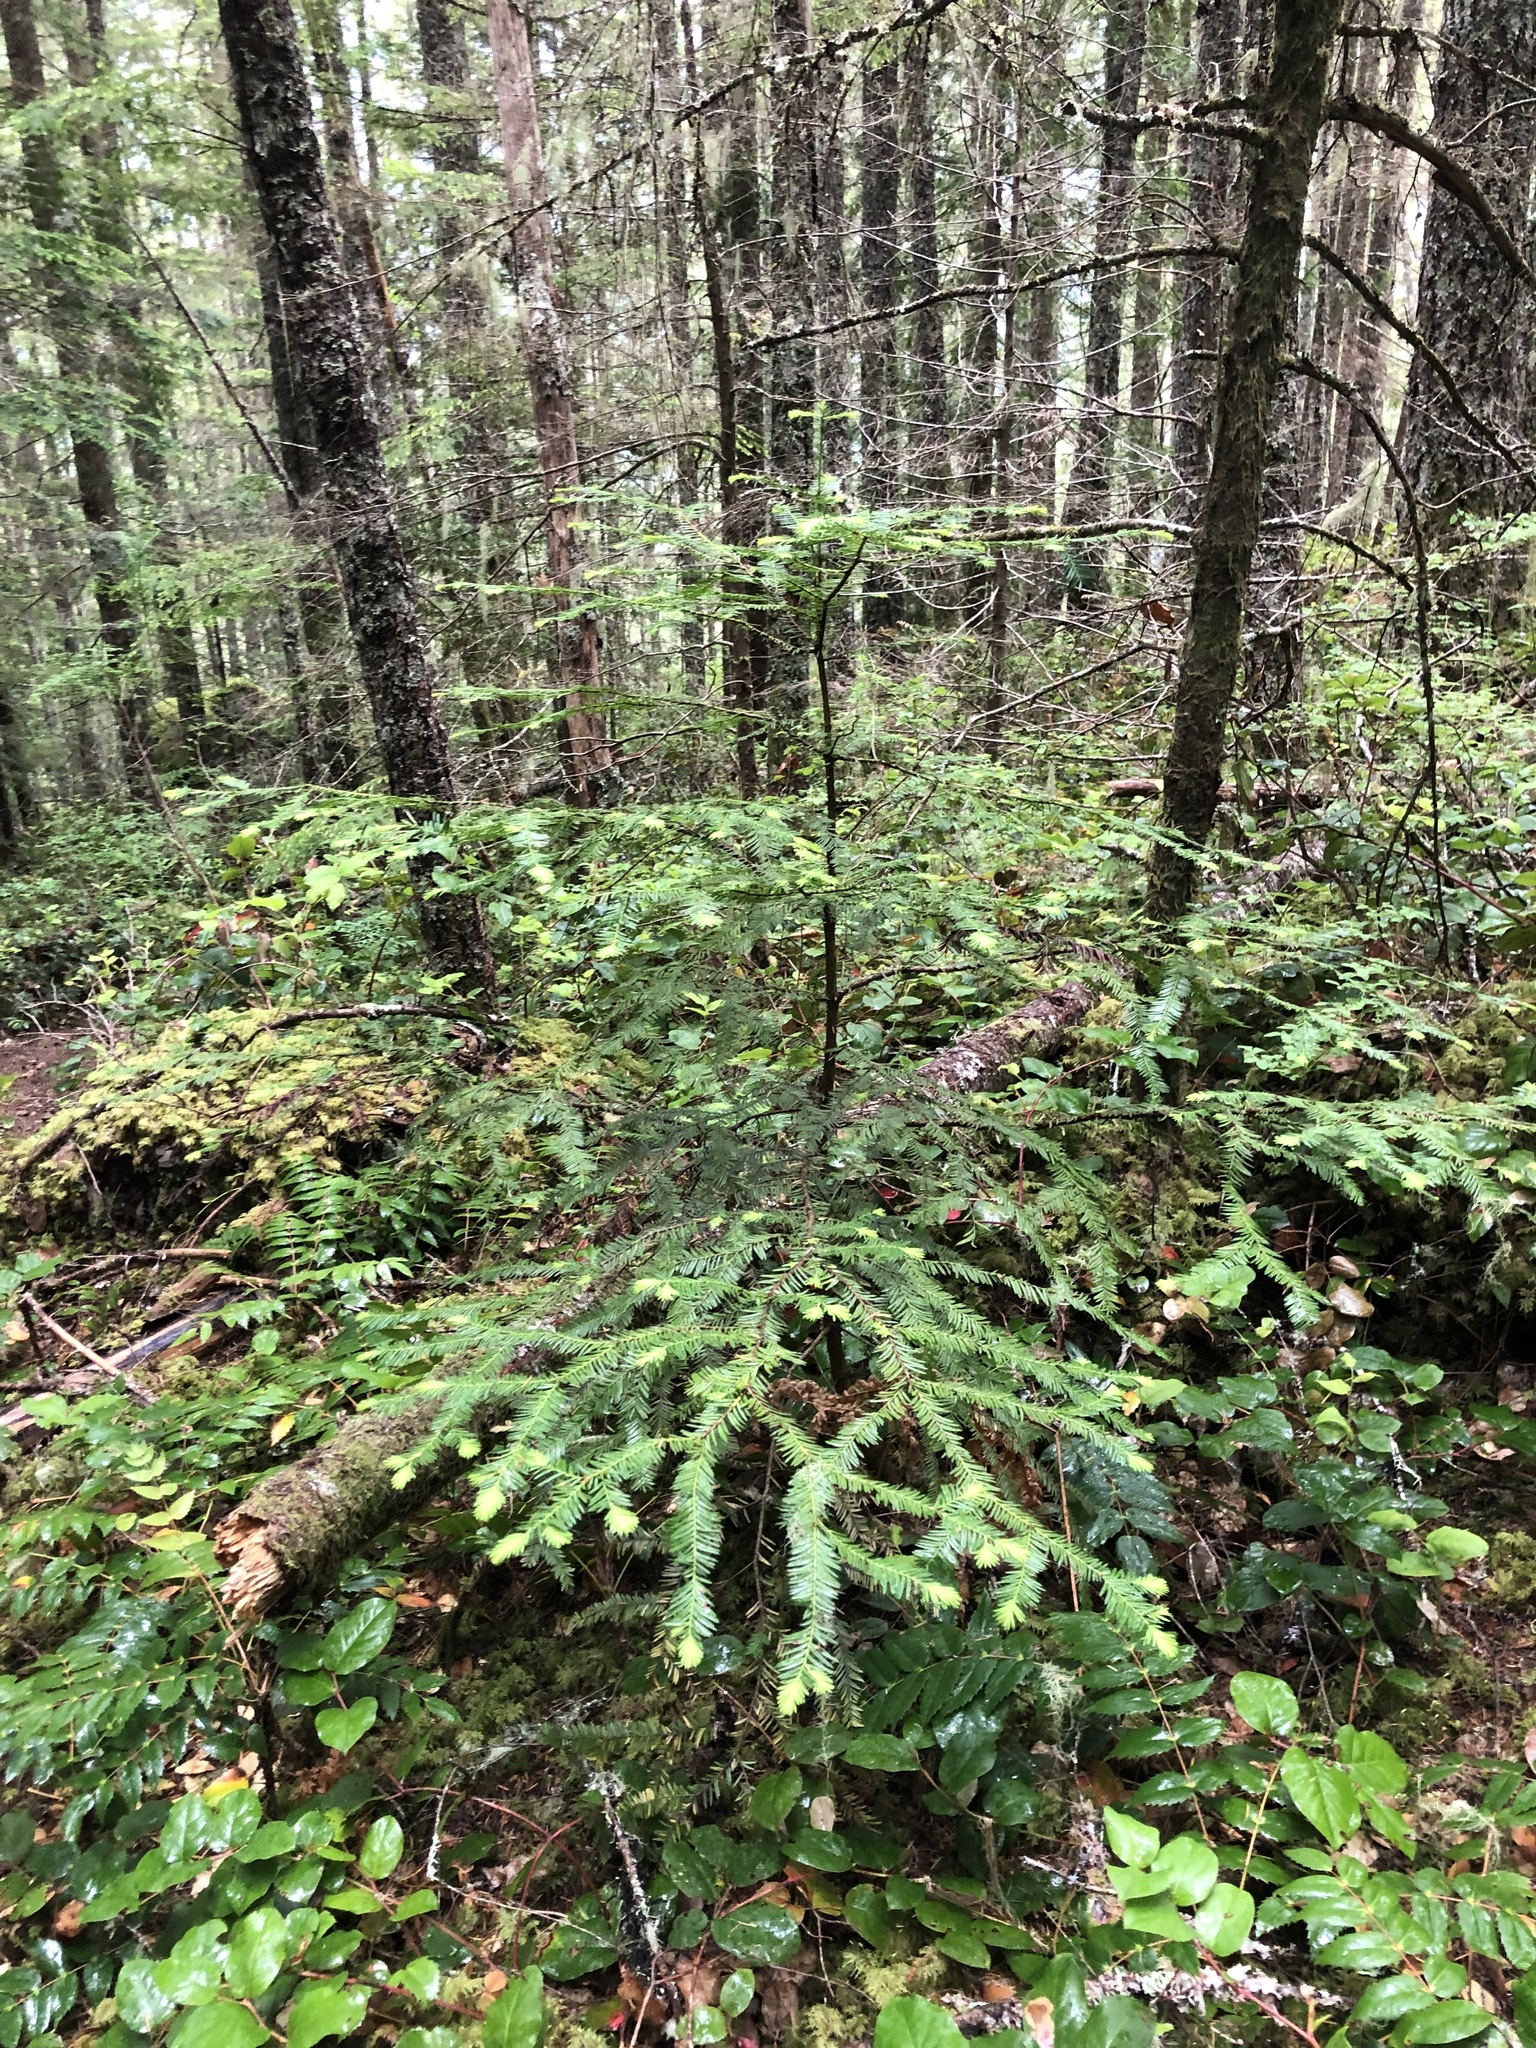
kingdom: Plantae
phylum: Tracheophyta
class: Pinopsida
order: Pinales
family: Taxaceae
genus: Taxus
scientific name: Taxus brevifolia
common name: Pacific yew
